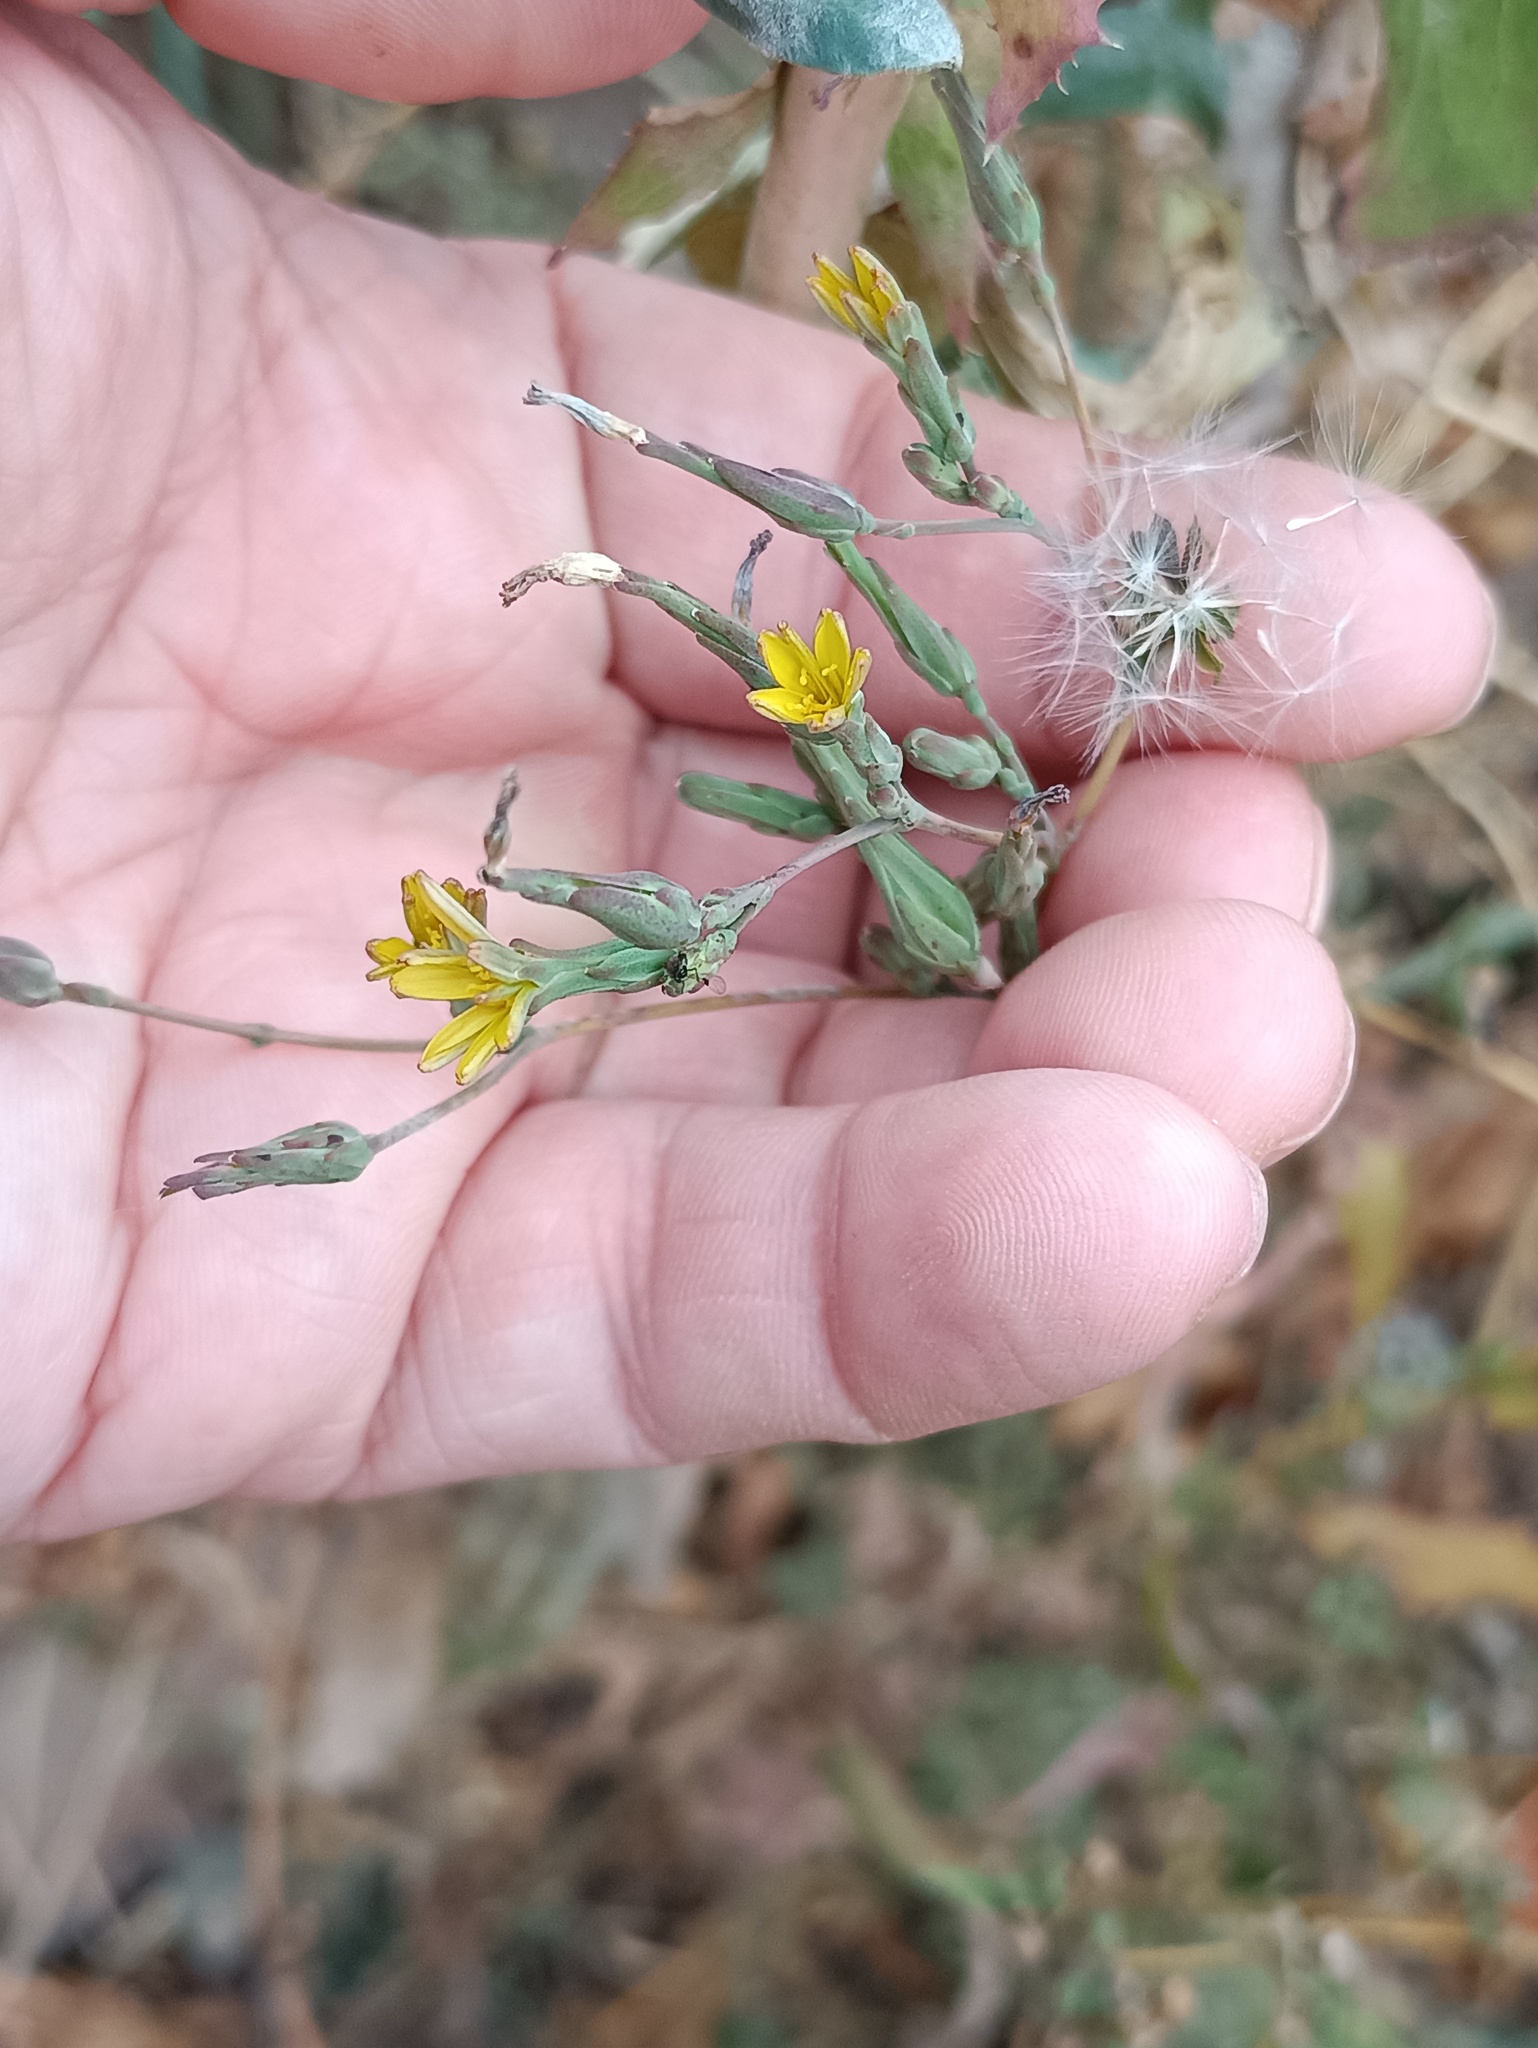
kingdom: Plantae
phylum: Tracheophyta
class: Magnoliopsida
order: Asterales
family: Asteraceae
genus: Lactuca
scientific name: Lactuca serriola
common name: Prickly lettuce
